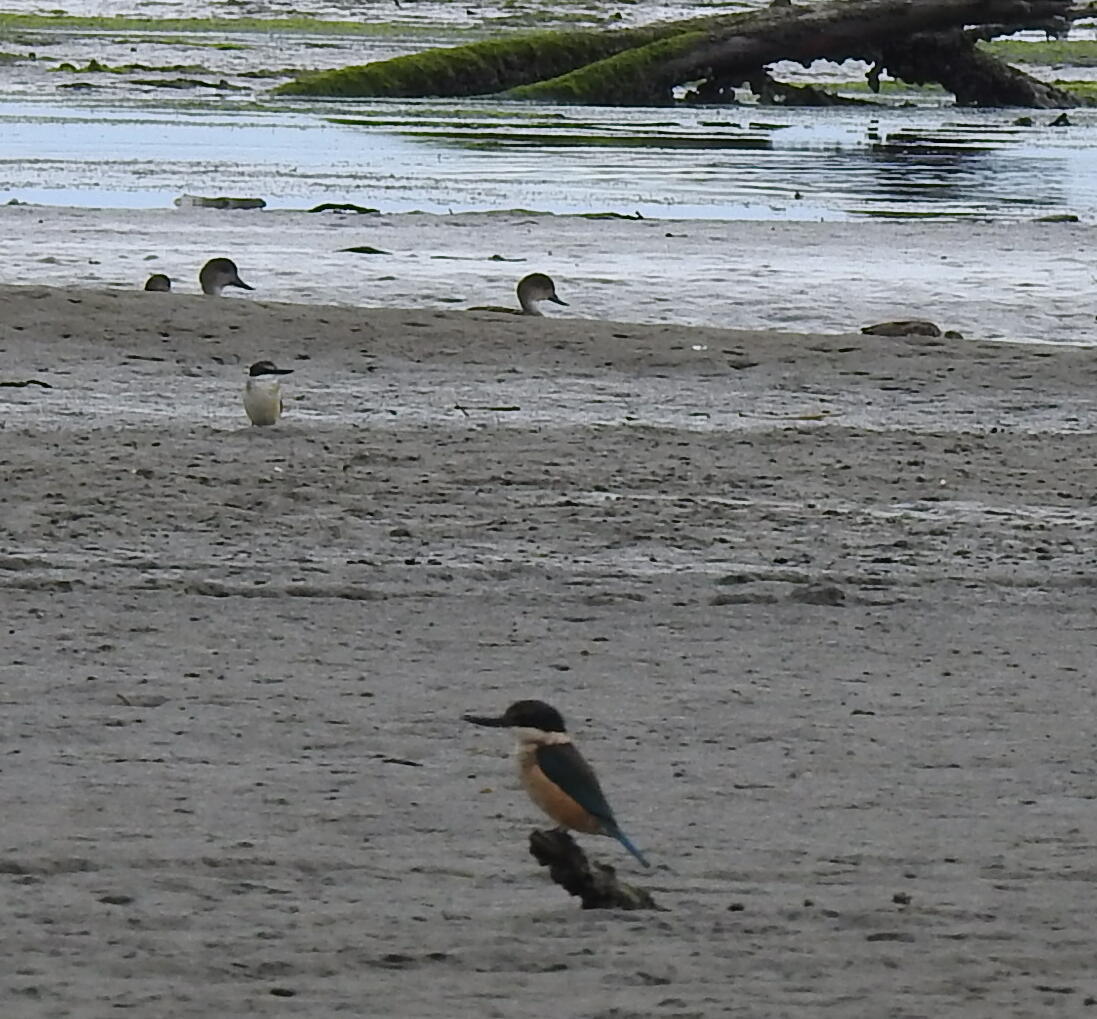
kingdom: Animalia
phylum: Chordata
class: Aves
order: Coraciiformes
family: Alcedinidae
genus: Todiramphus
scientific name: Todiramphus sanctus
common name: Sacred kingfisher
